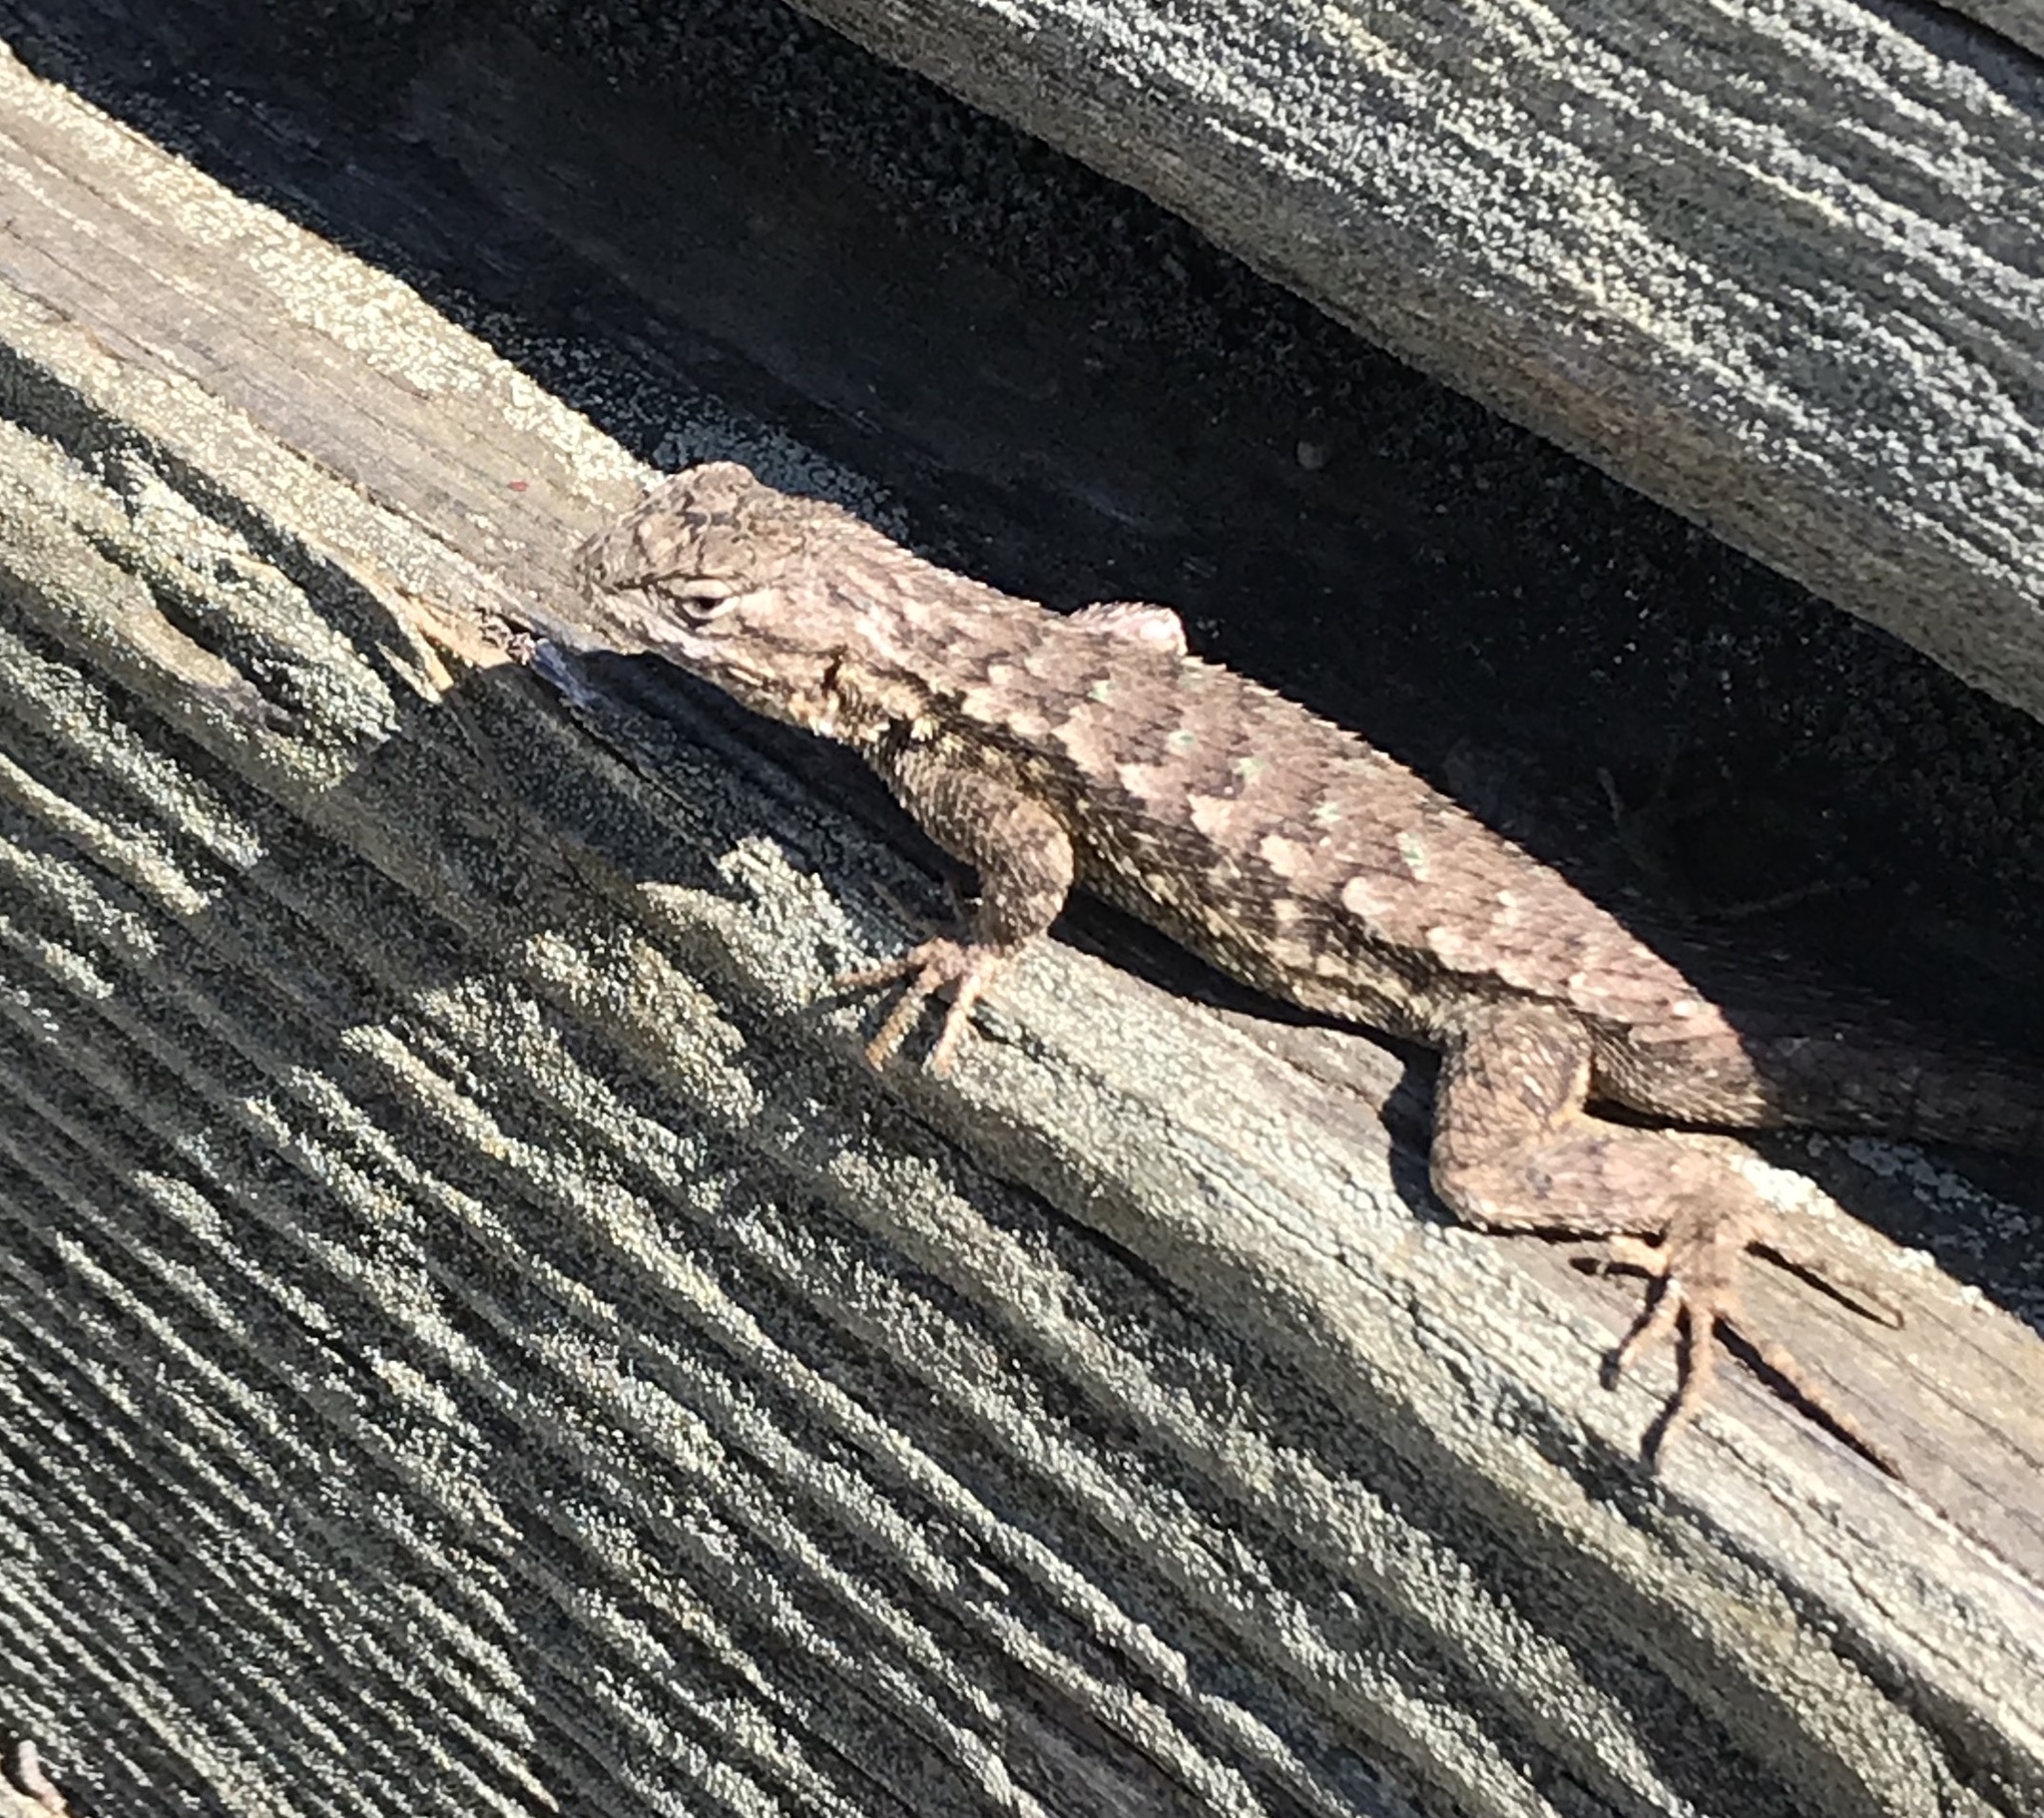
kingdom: Animalia
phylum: Chordata
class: Squamata
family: Phrynosomatidae
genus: Sceloporus
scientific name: Sceloporus occidentalis
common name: Western fence lizard
